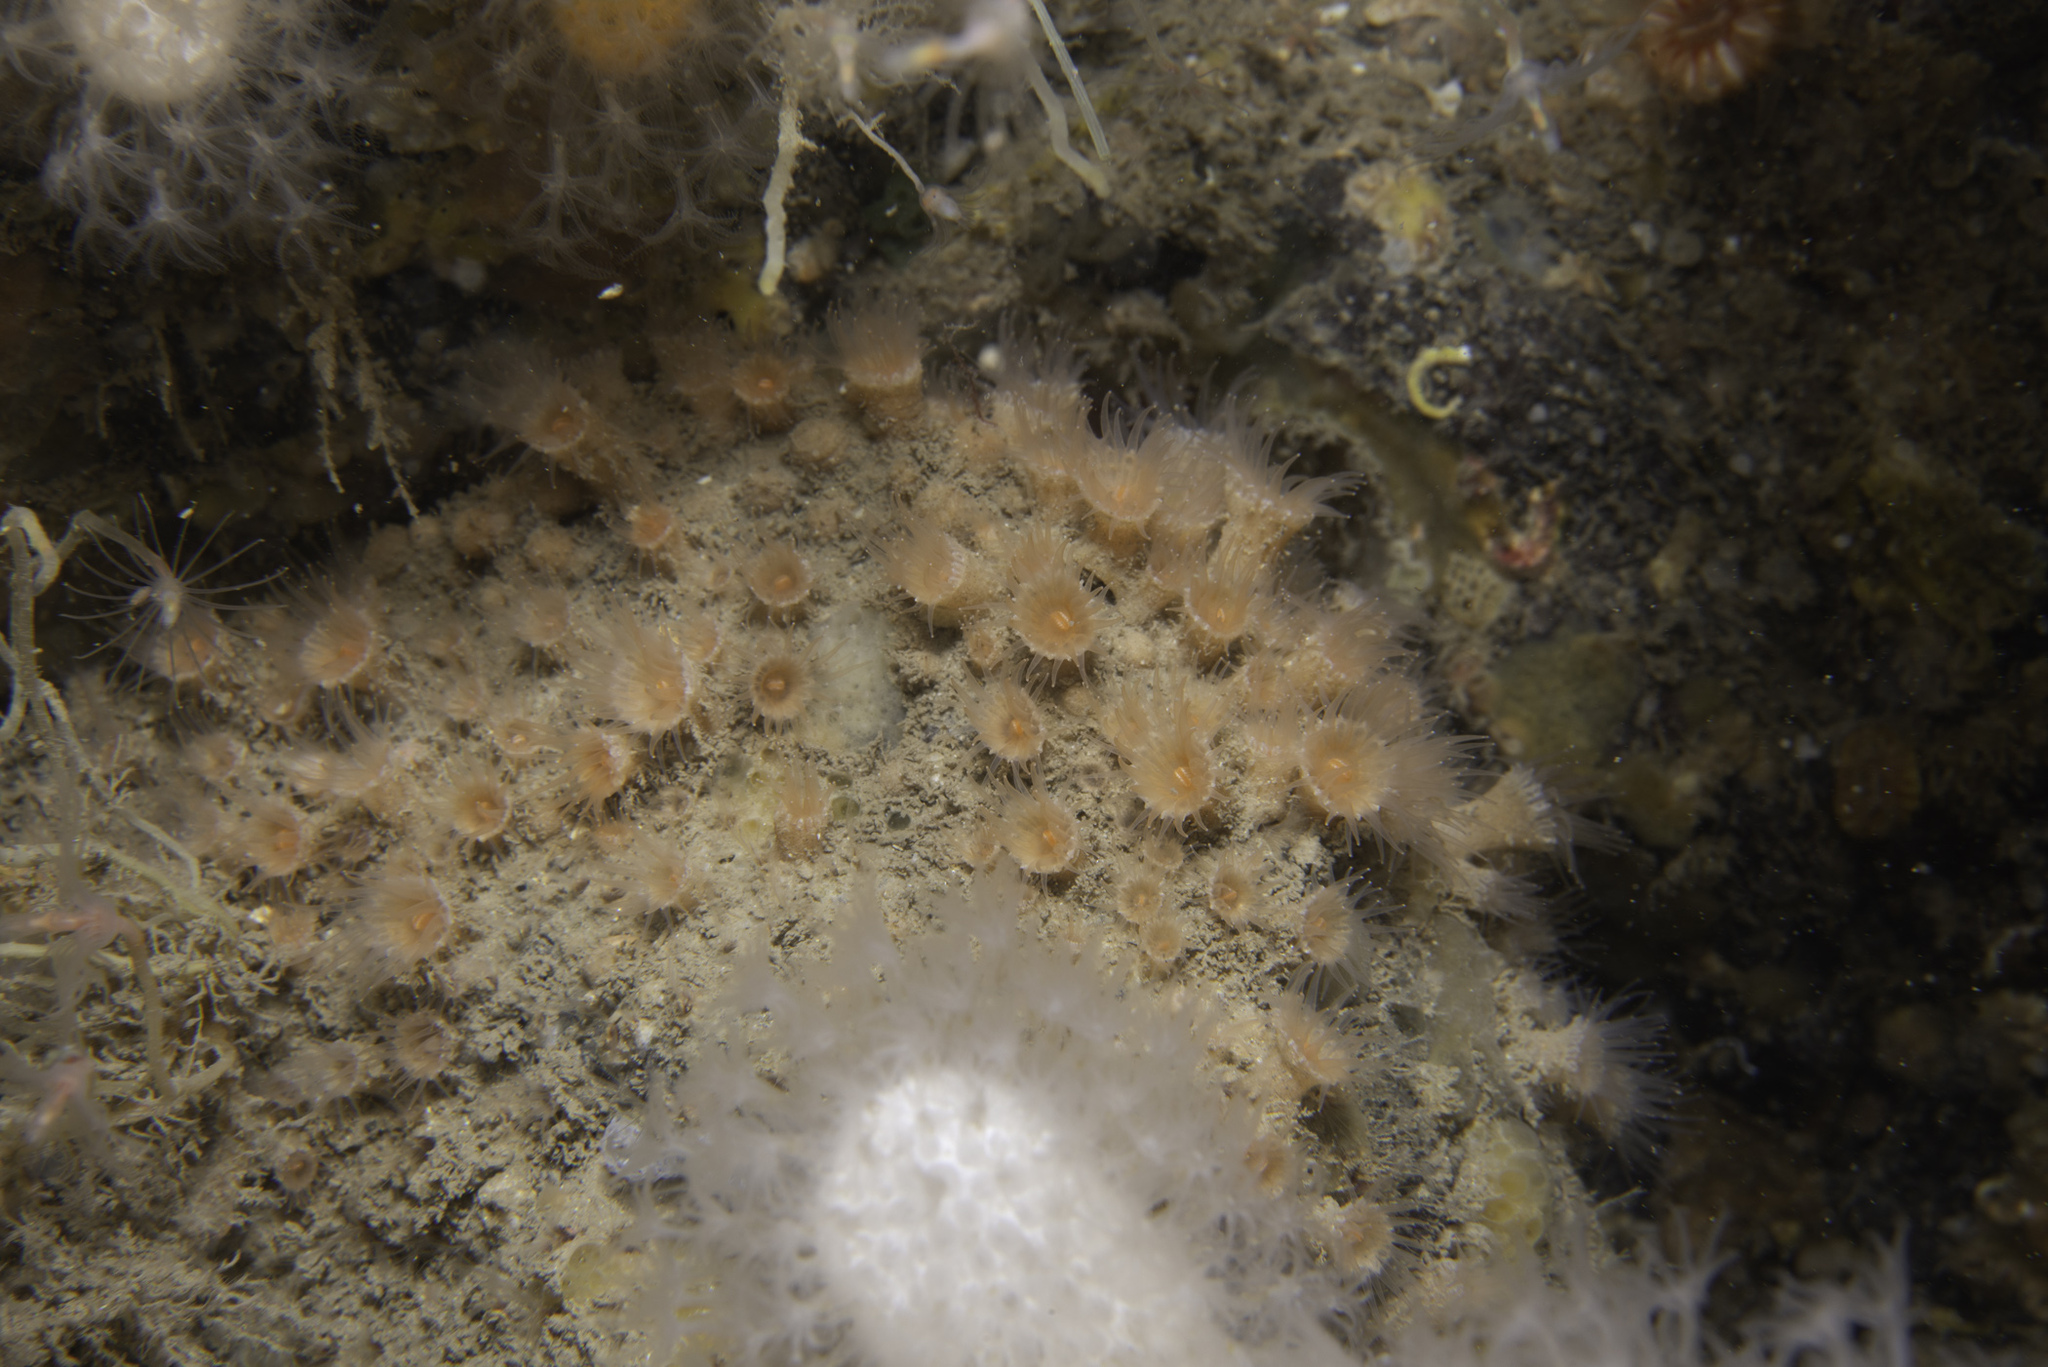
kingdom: Animalia
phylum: Cnidaria
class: Anthozoa
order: Zoantharia
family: Epizoanthidae
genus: Epizoanthus
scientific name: Epizoanthus couchii
